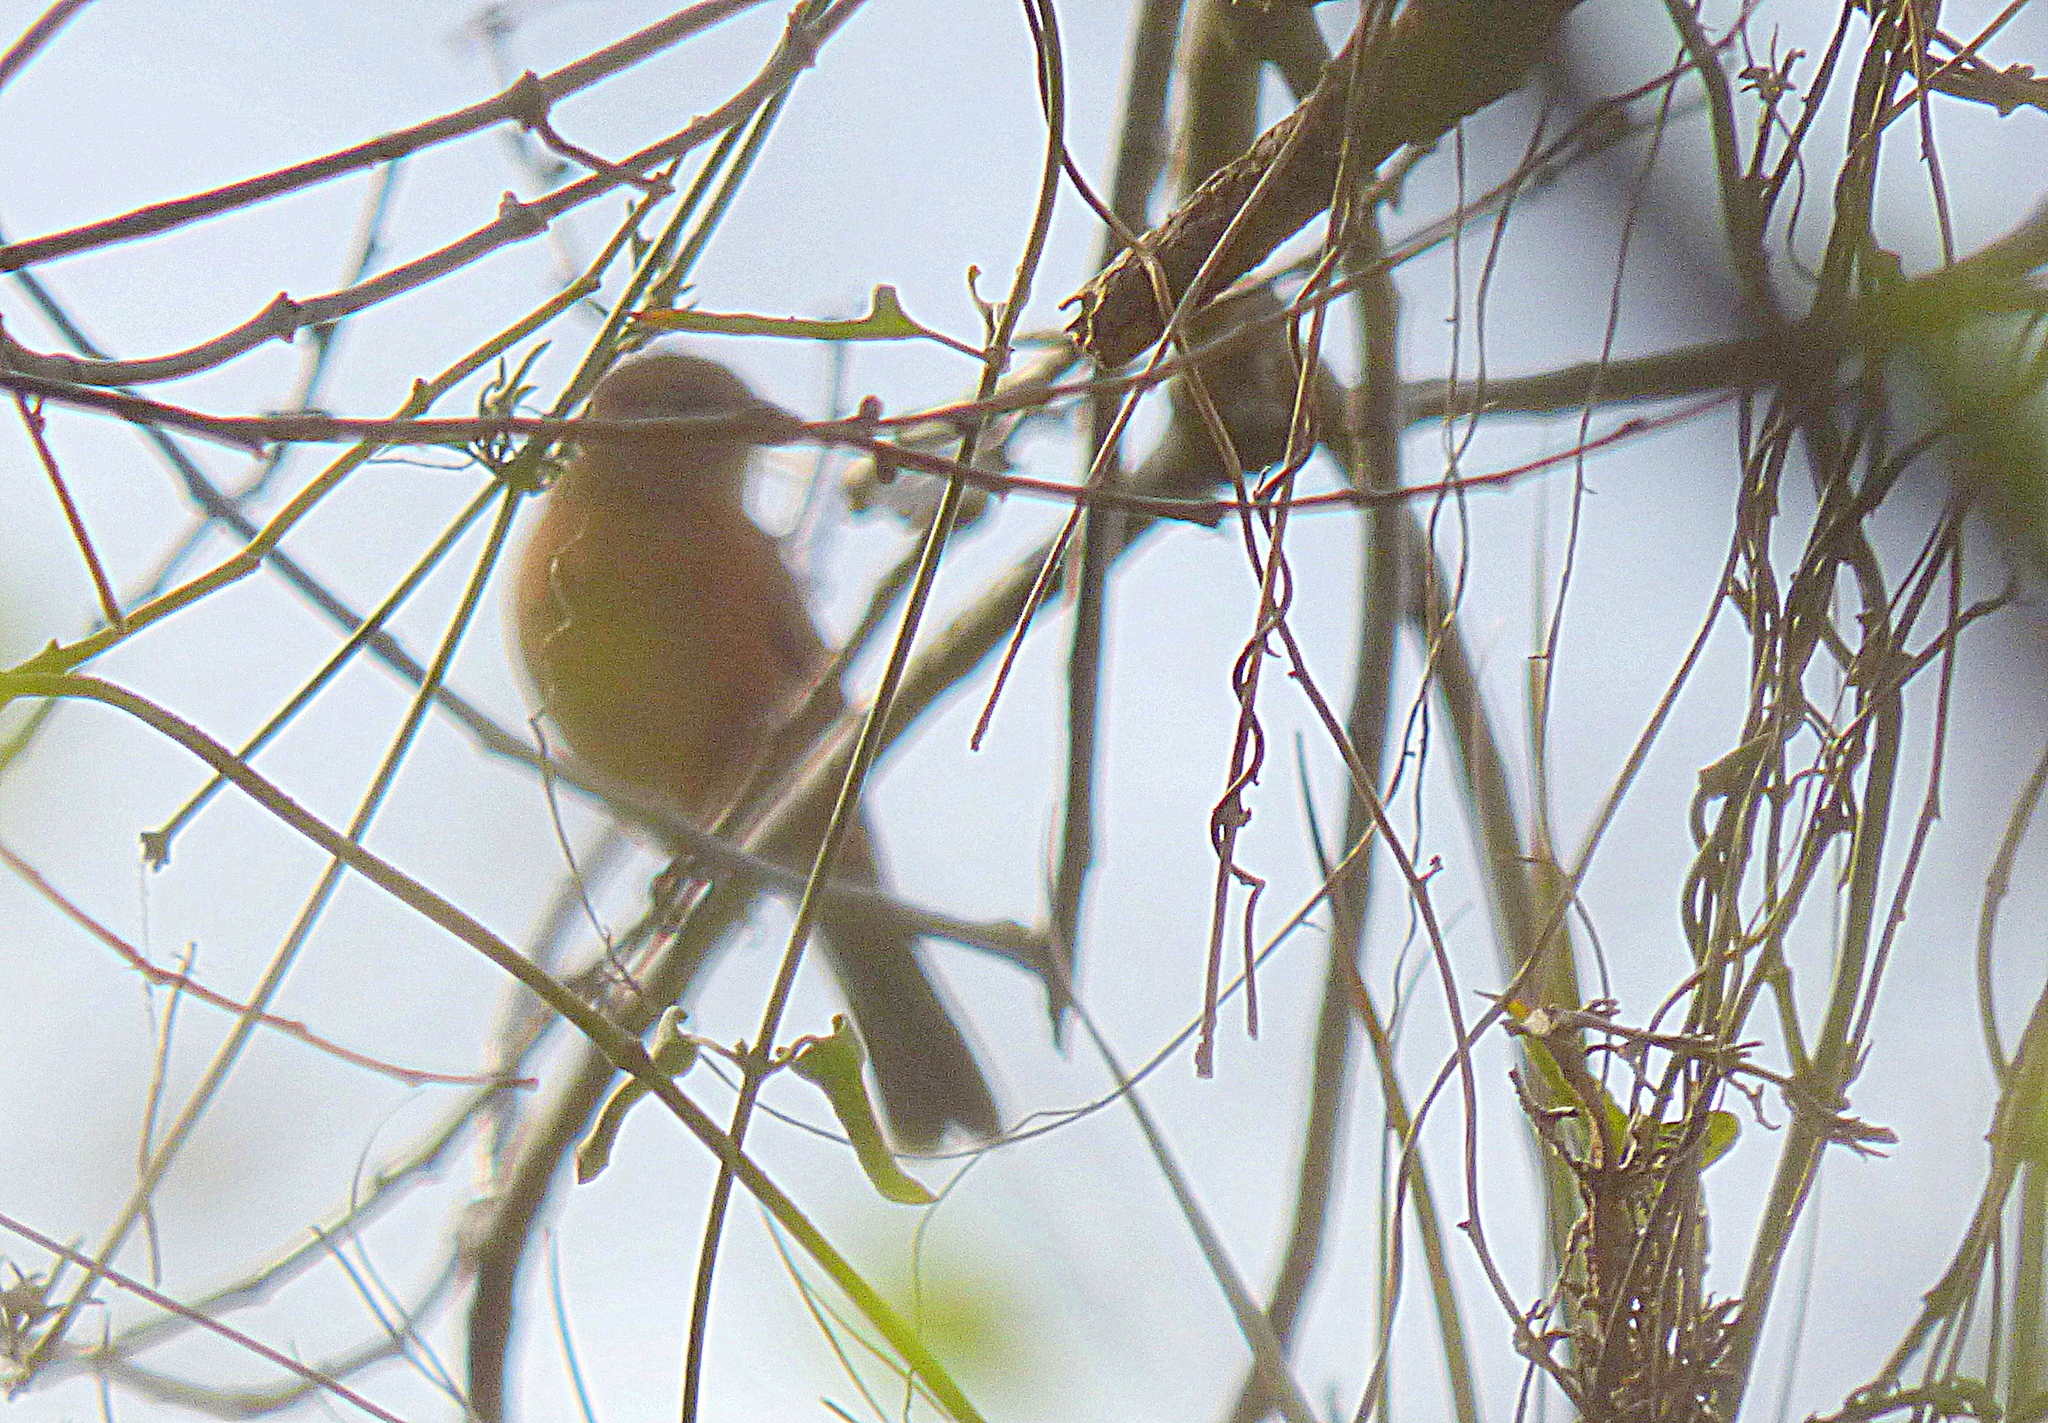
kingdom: Animalia
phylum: Chordata
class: Aves
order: Passeriformes
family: Cardinalidae
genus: Piranga
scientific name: Piranga flava
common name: Red tanager
